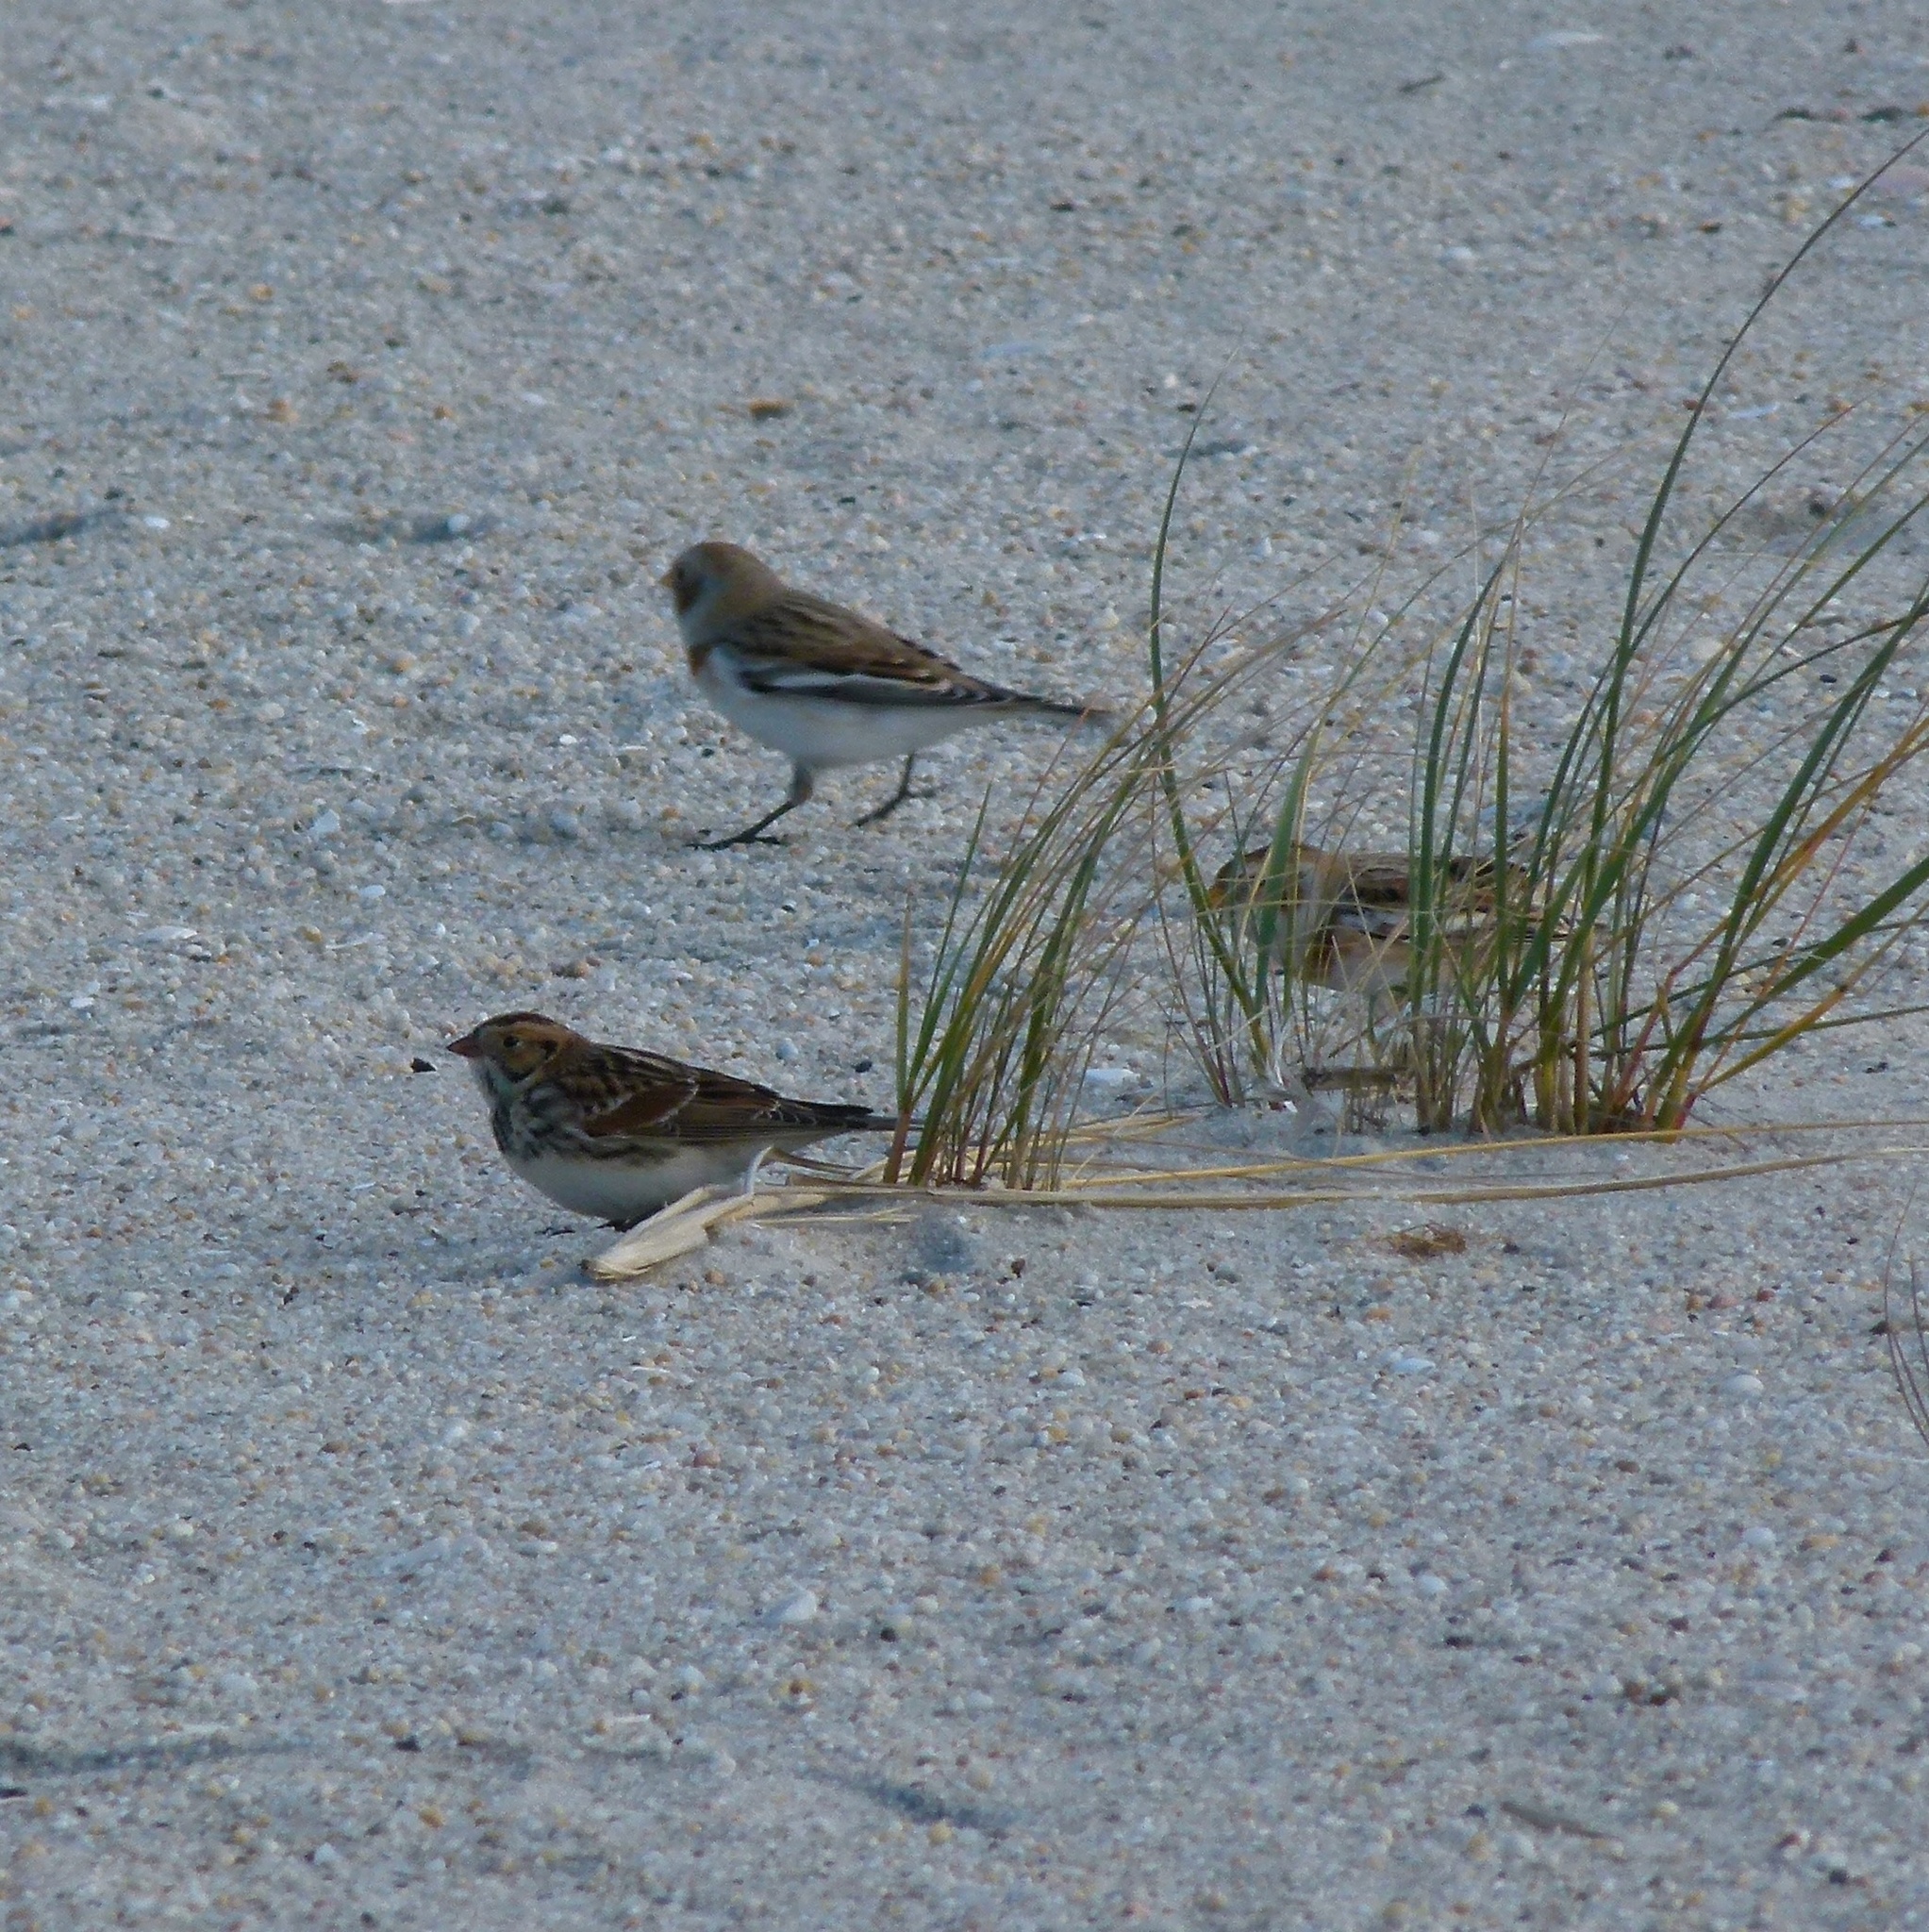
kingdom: Animalia
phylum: Chordata
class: Aves
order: Passeriformes
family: Calcariidae
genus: Calcarius
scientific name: Calcarius lapponicus
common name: Lapland longspur
